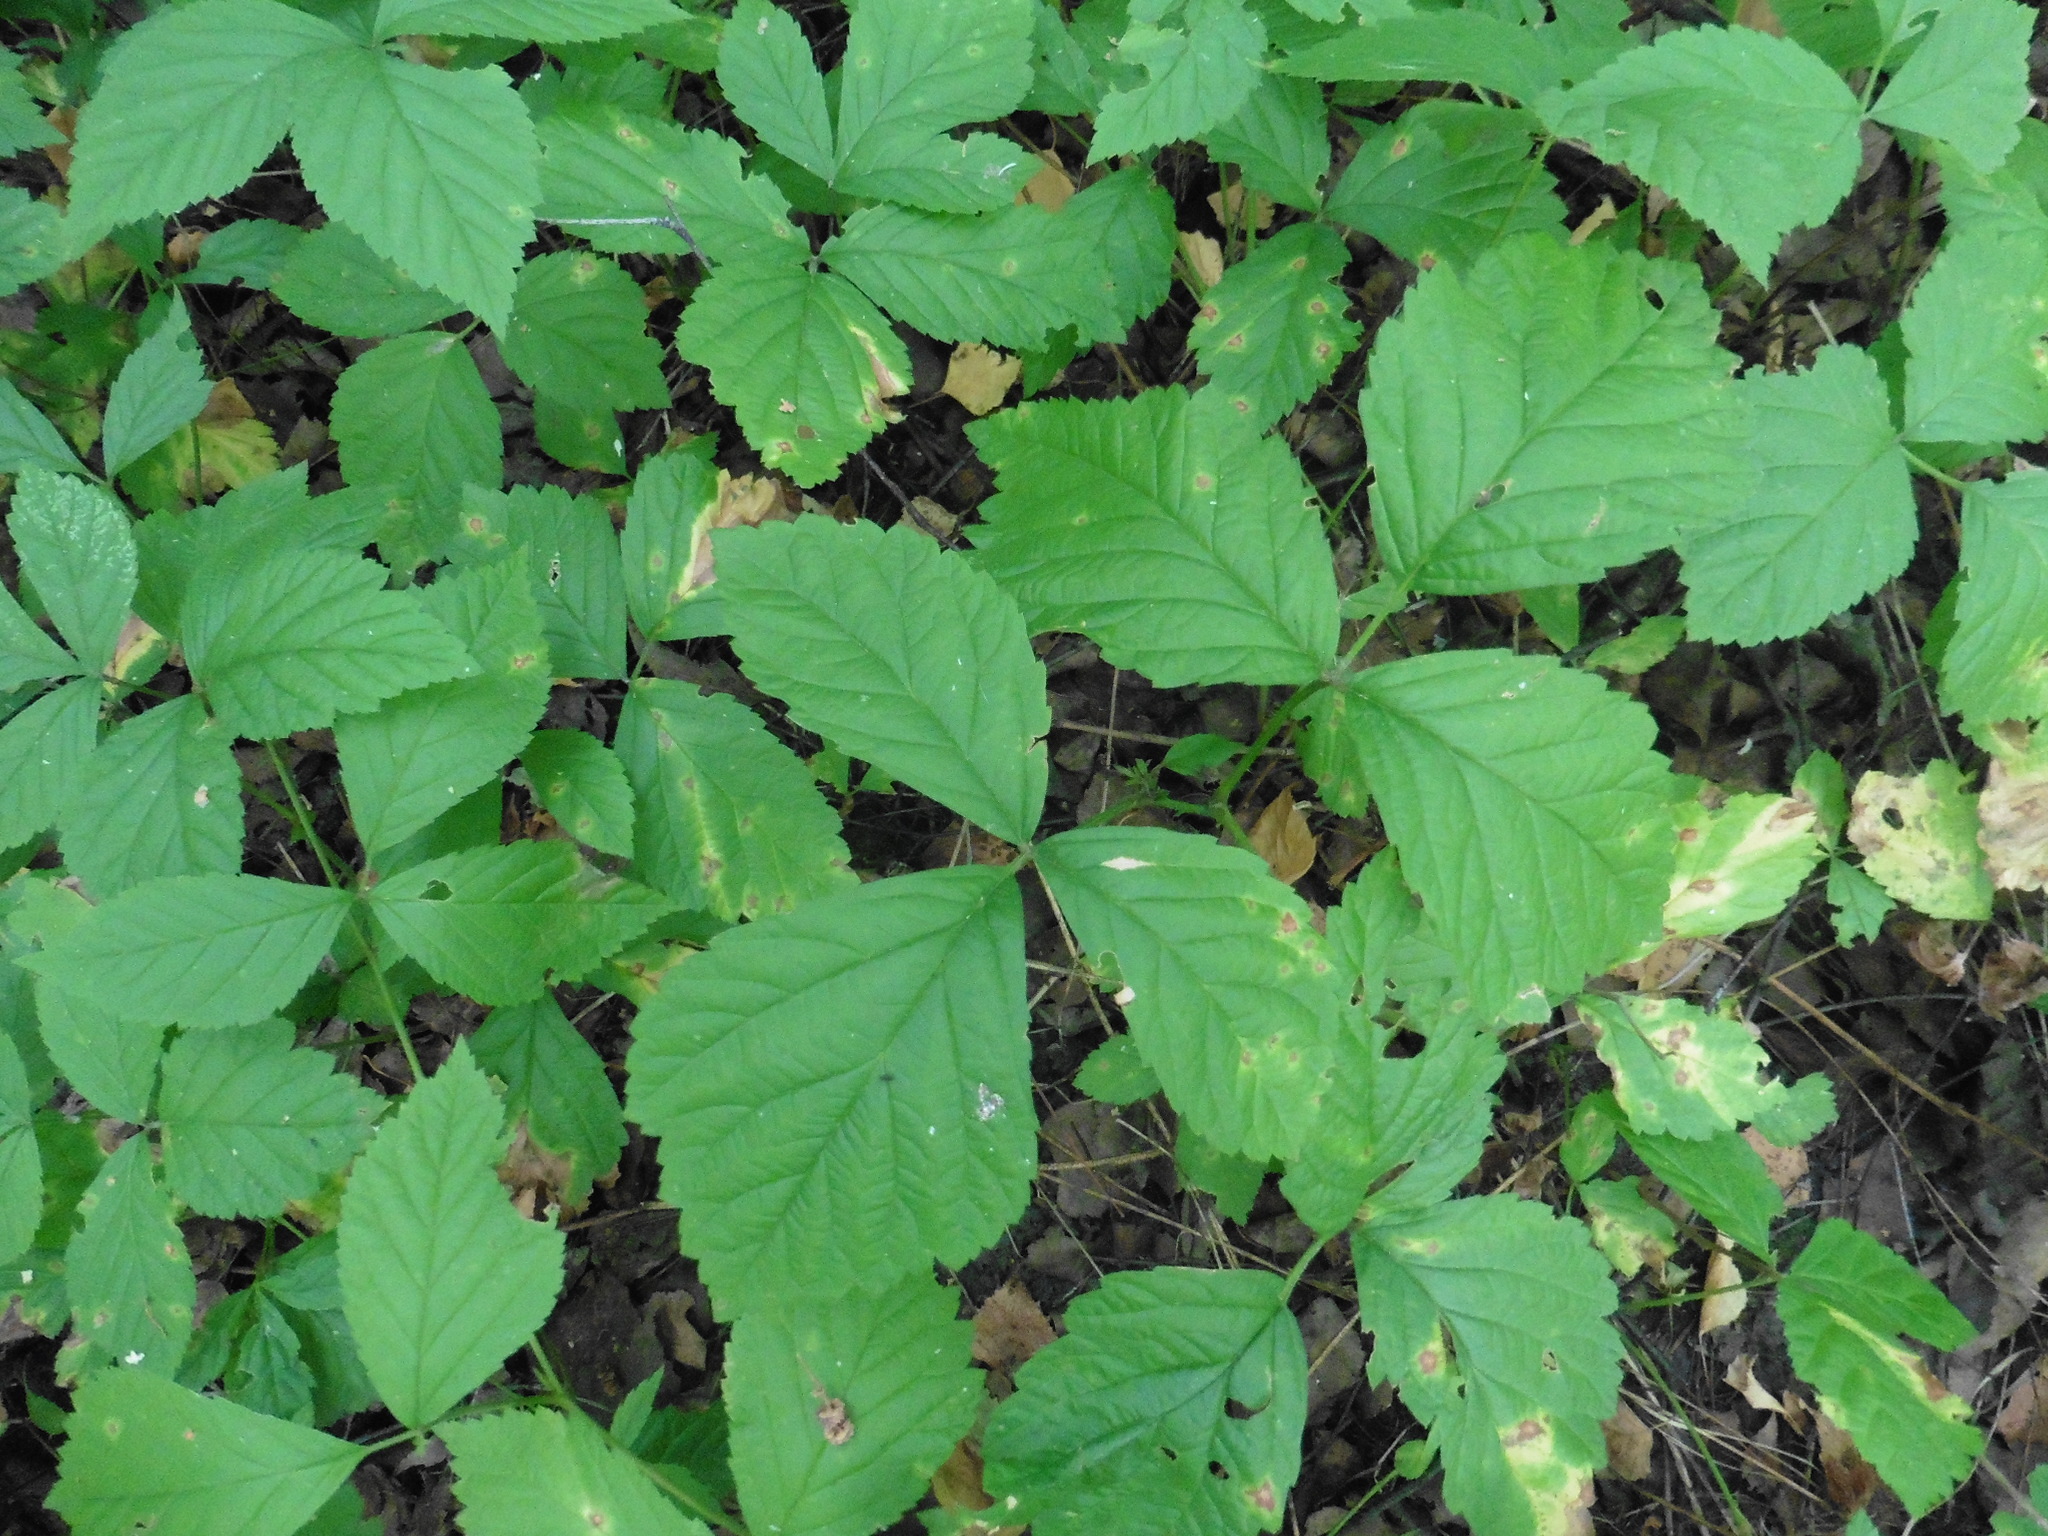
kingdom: Plantae
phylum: Tracheophyta
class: Magnoliopsida
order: Rosales
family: Rosaceae
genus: Rubus
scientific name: Rubus saxatilis
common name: Stone bramble
